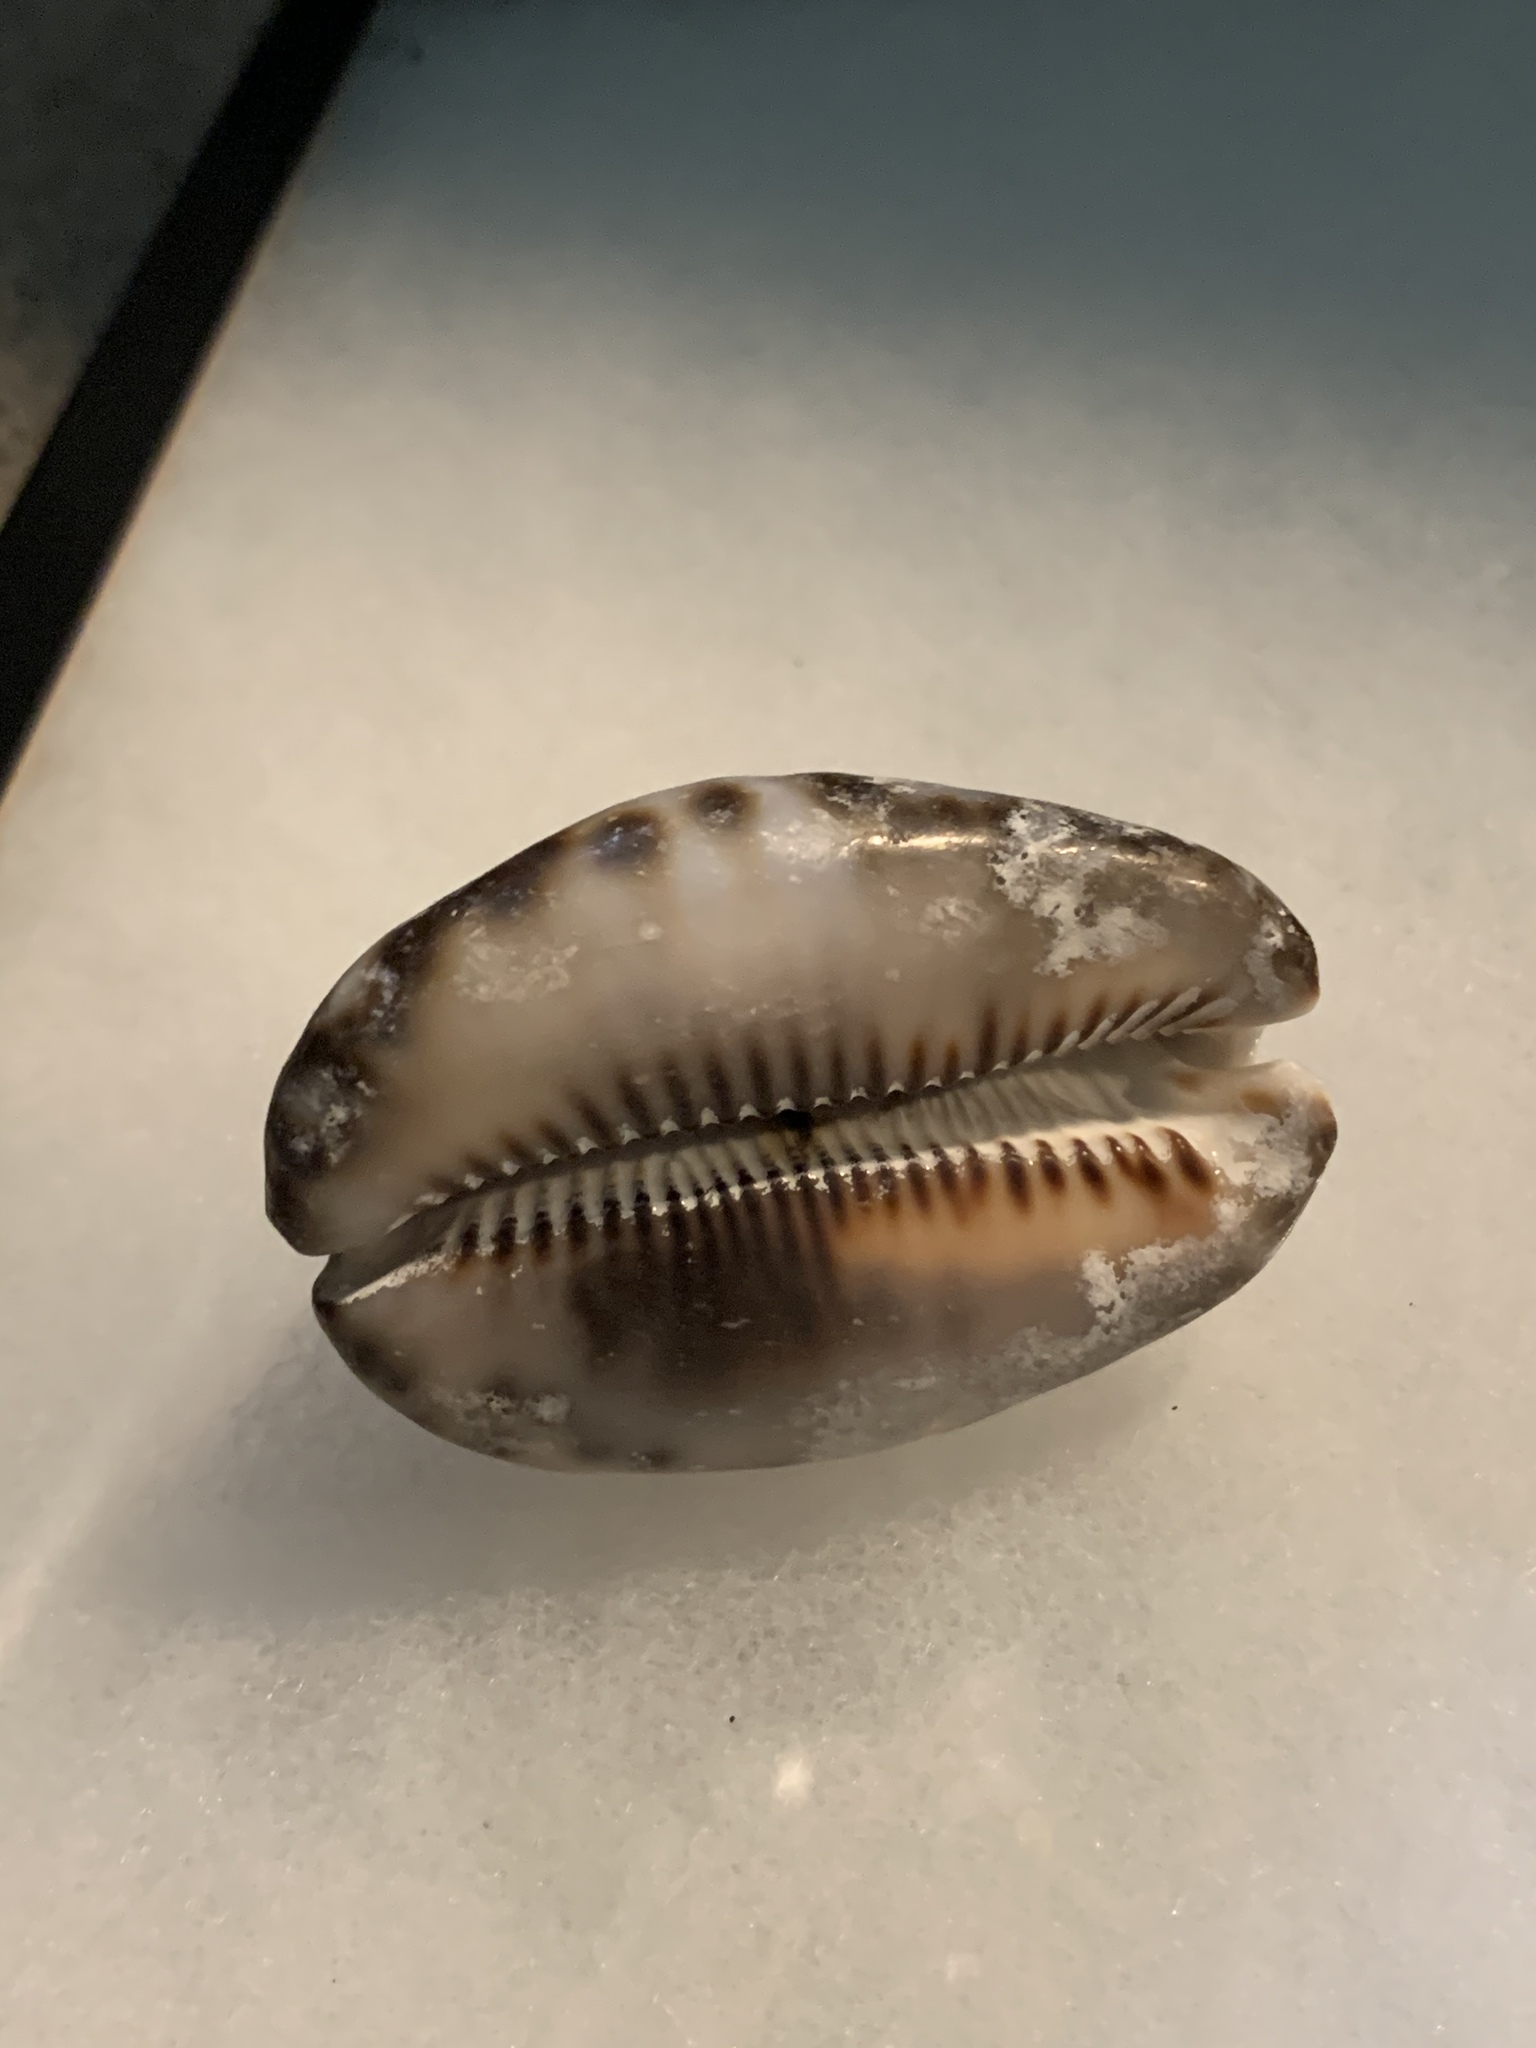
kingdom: Animalia
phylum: Mollusca
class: Gastropoda
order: Littorinimorpha
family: Cypraeidae
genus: Mauritia
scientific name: Mauritia maculifera
